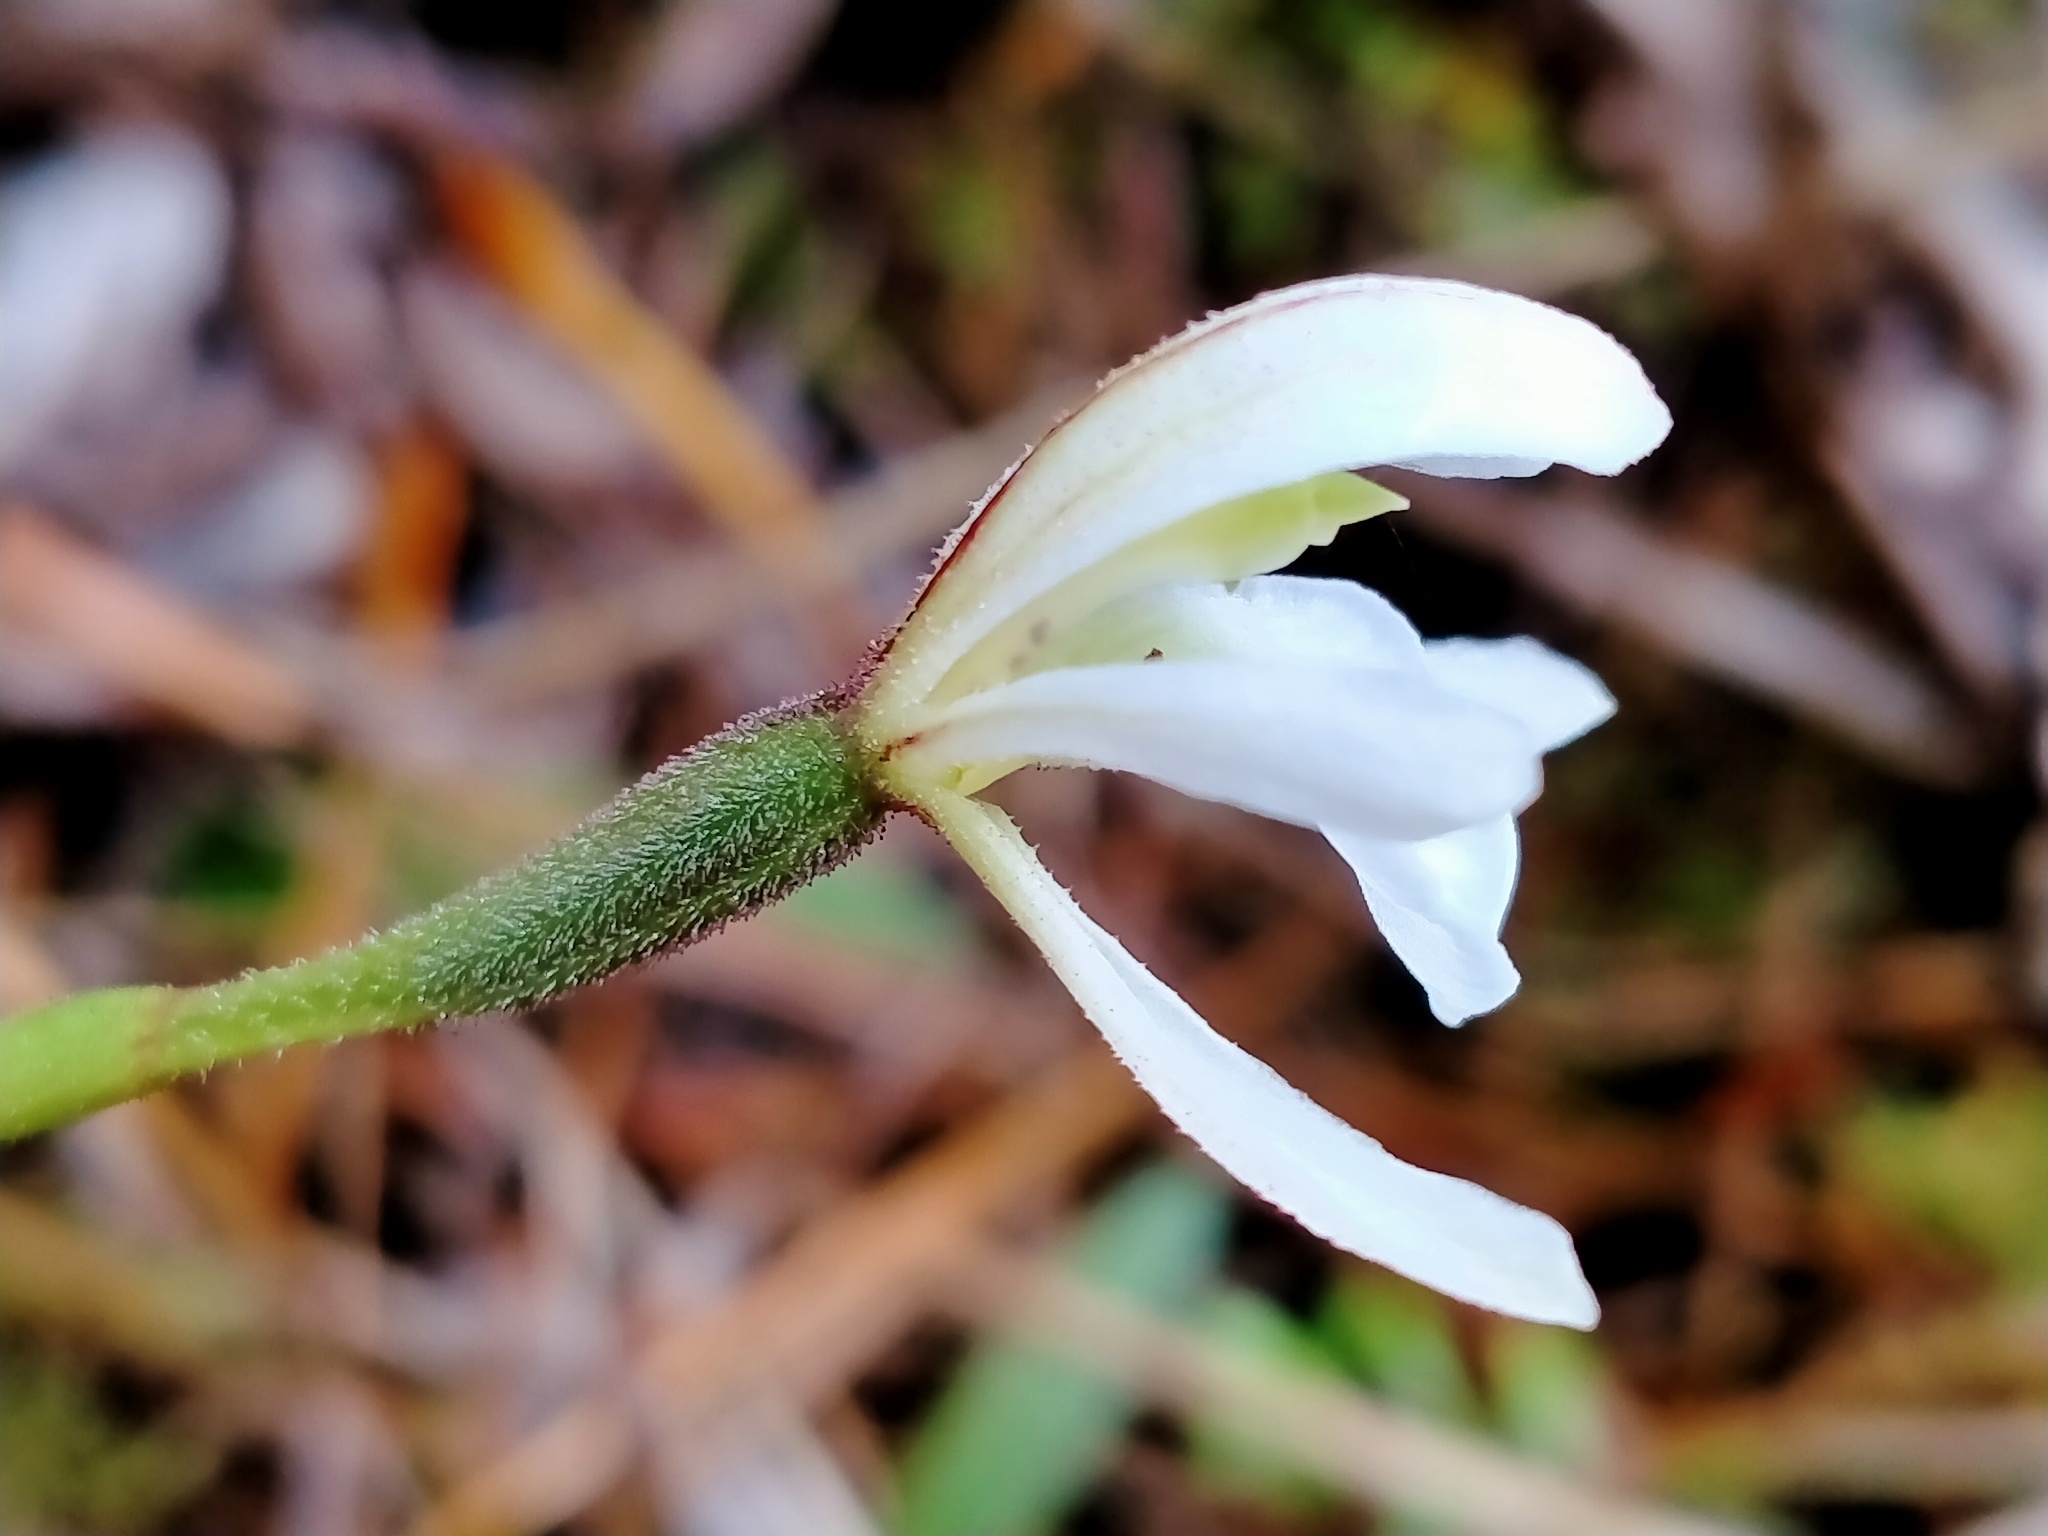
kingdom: Plantae
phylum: Tracheophyta
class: Liliopsida
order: Asparagales
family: Orchidaceae
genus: Aporostylis
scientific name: Aporostylis bifolia
